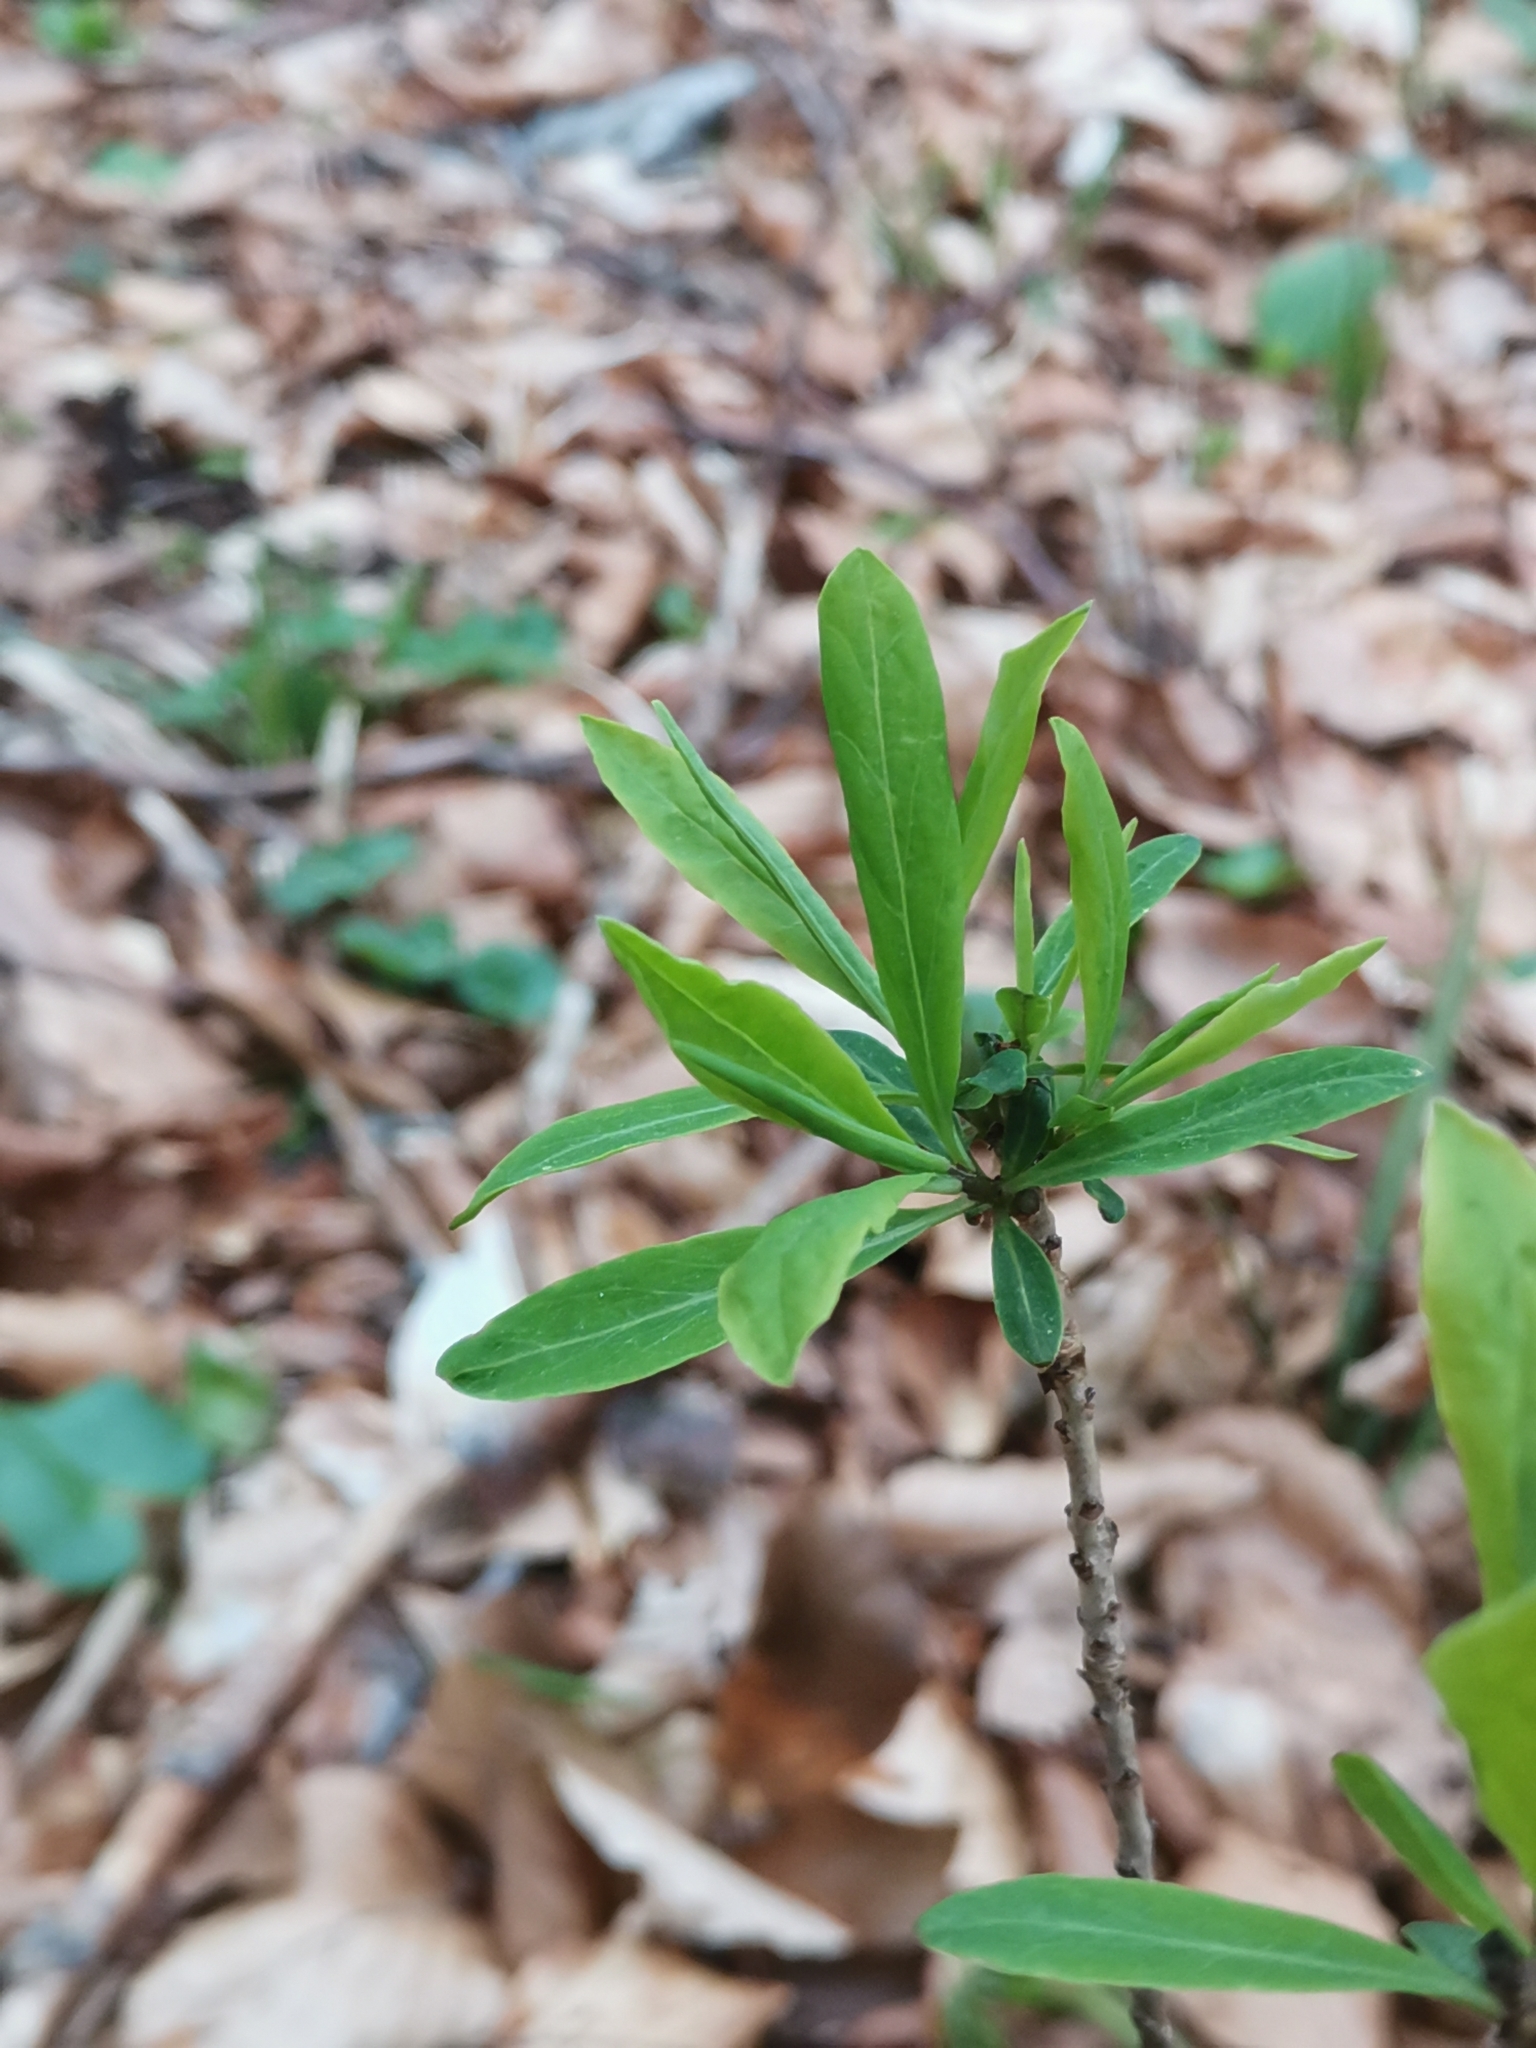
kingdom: Plantae
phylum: Tracheophyta
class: Magnoliopsida
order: Malvales
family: Thymelaeaceae
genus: Daphne
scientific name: Daphne mezereum
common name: Mezereon
